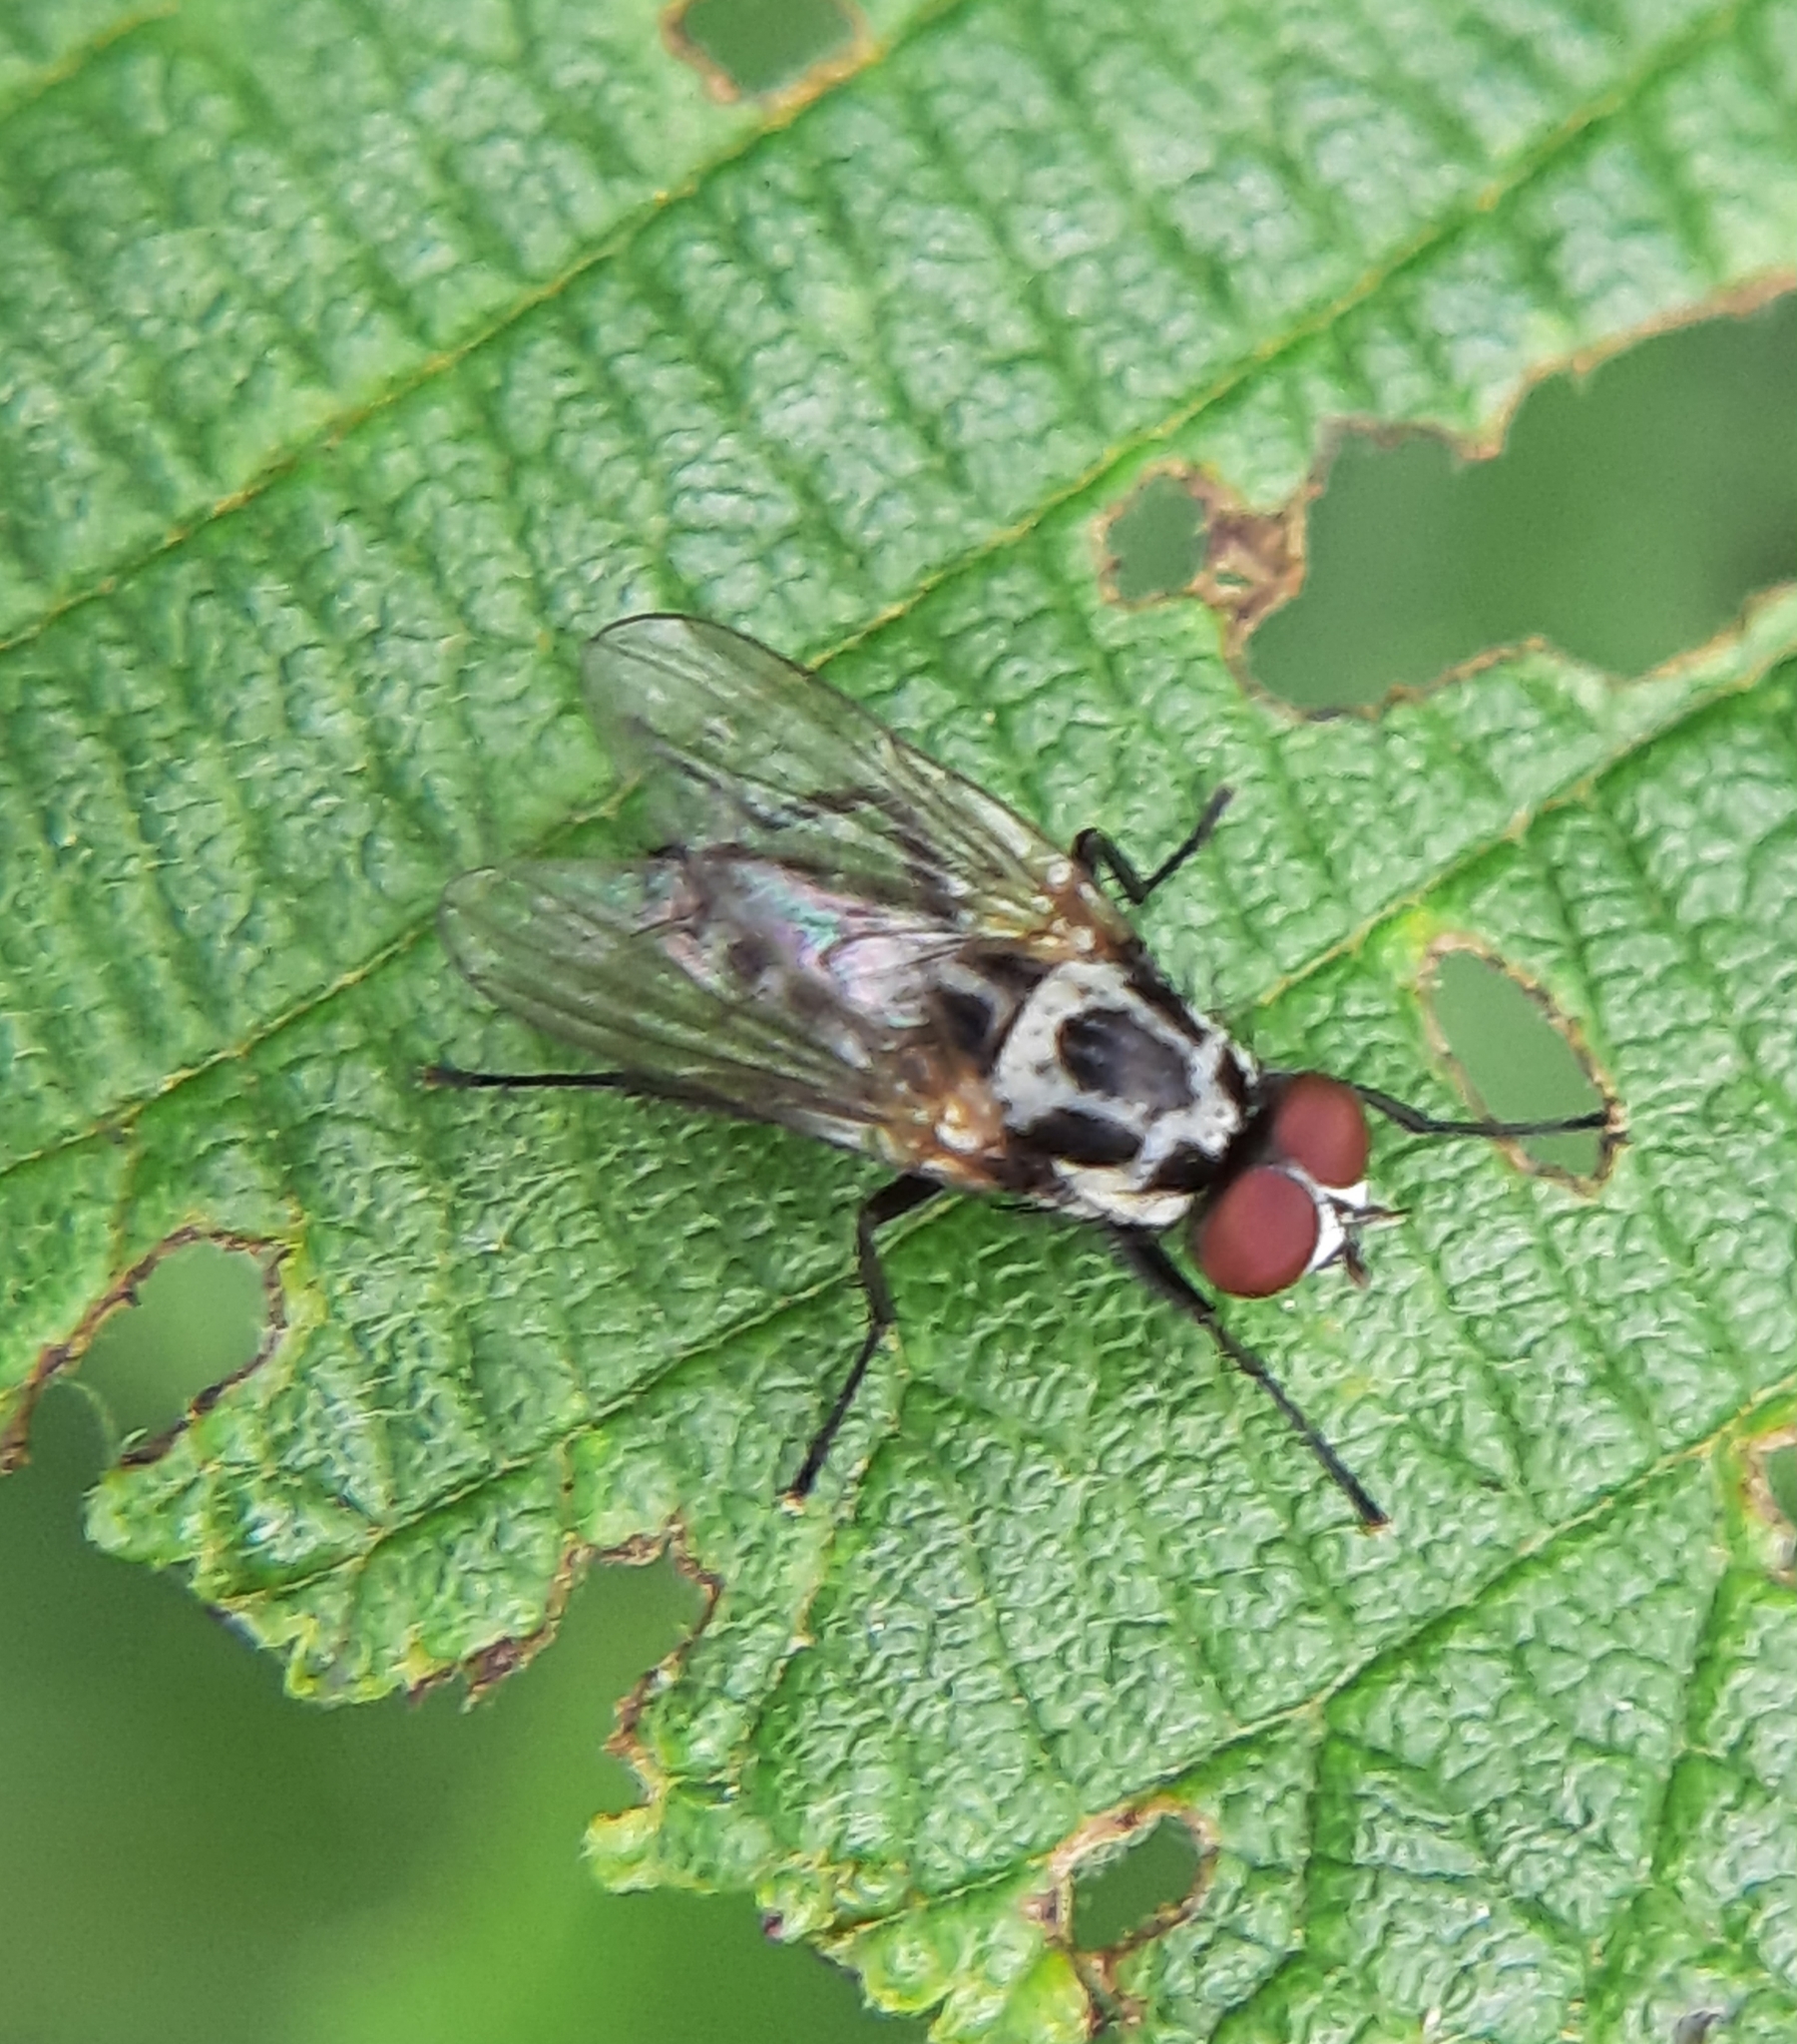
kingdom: Animalia
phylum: Arthropoda
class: Insecta
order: Diptera
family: Anthomyiidae
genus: Anthomyia
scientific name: Anthomyia pluvialis
